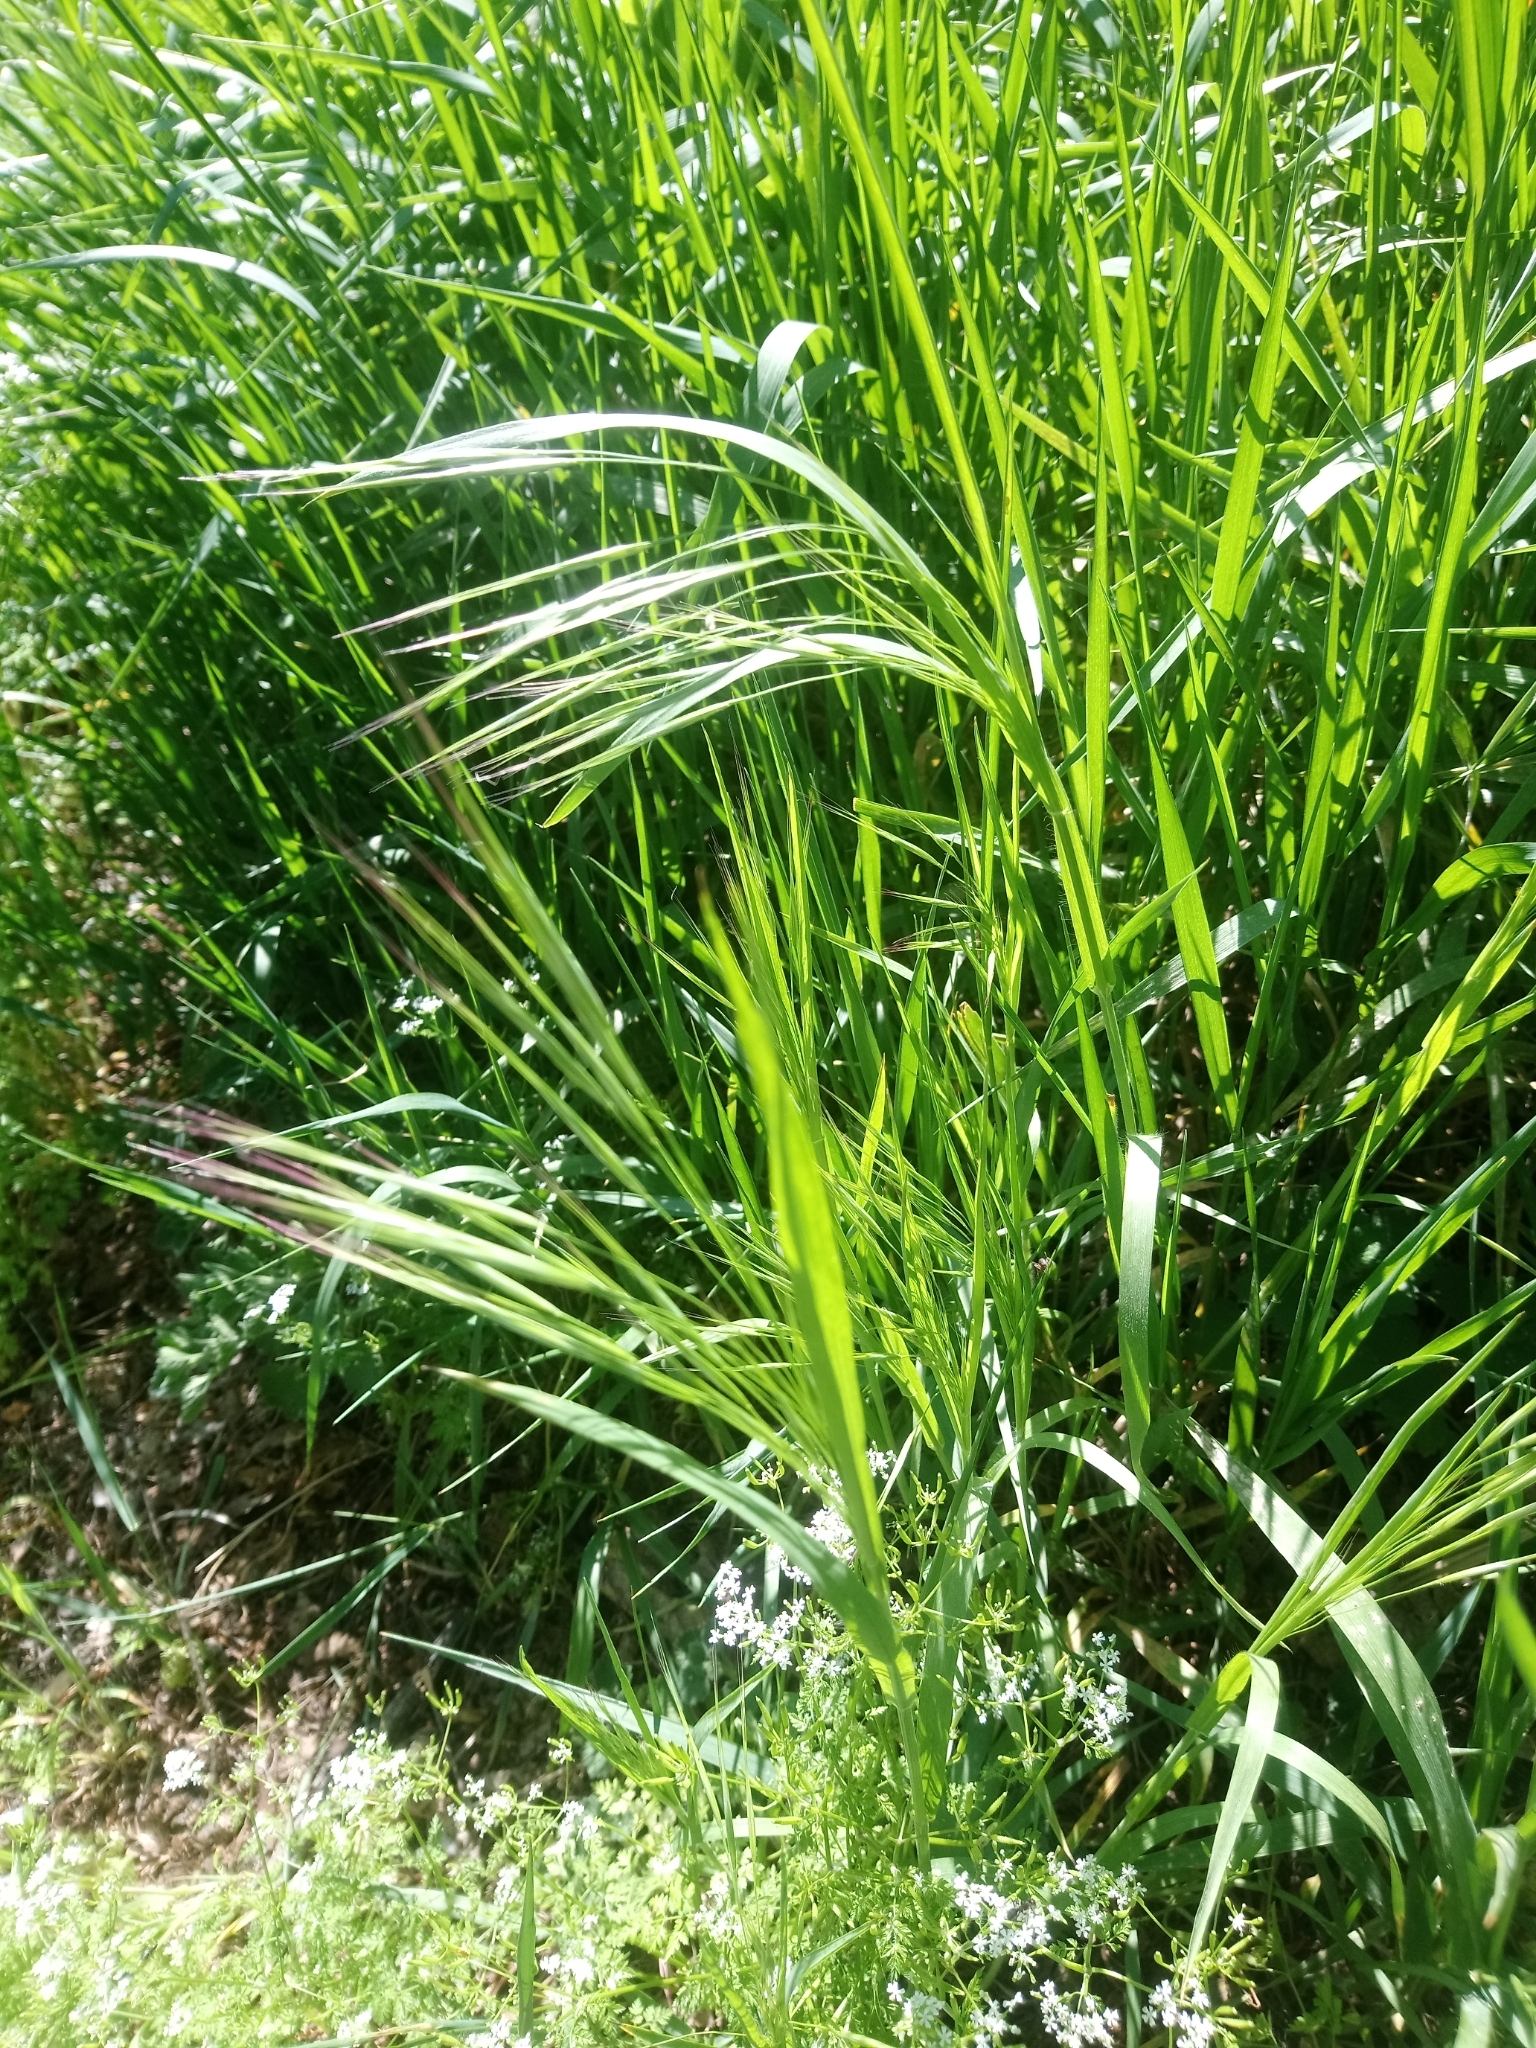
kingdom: Plantae
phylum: Tracheophyta
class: Liliopsida
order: Poales
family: Poaceae
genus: Bromus
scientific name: Bromus sterilis
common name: Poverty brome
